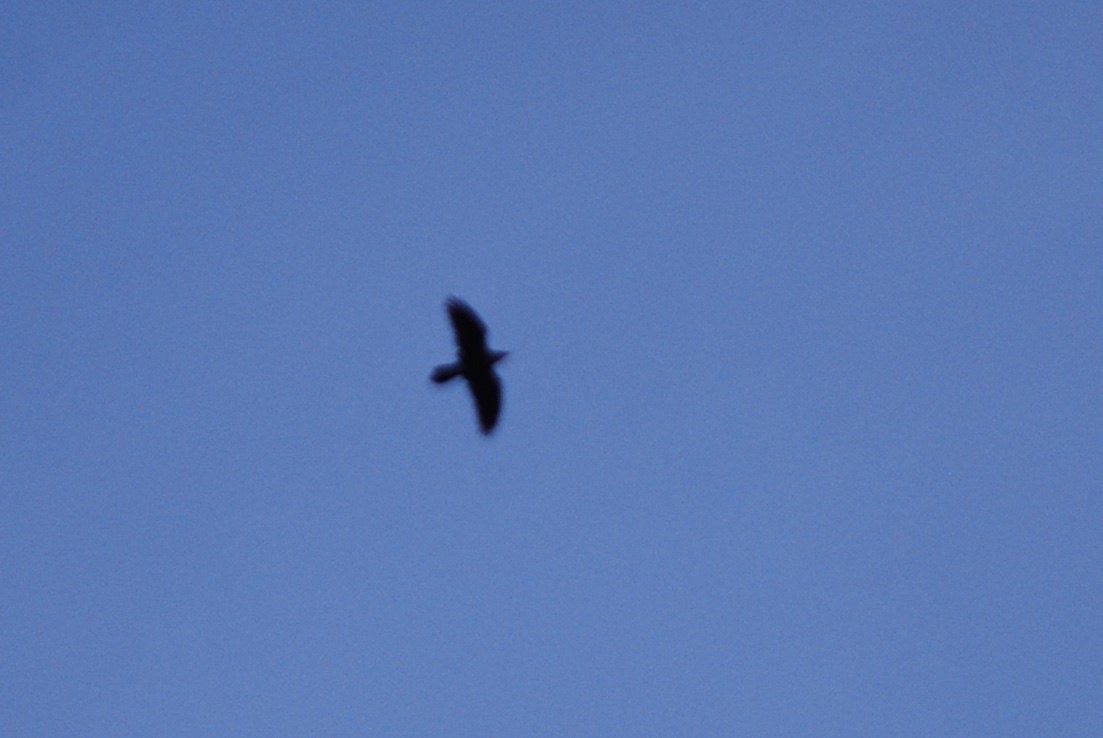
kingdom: Animalia
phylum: Chordata
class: Aves
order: Passeriformes
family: Corvidae
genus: Corvus
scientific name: Corvus corax
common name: Common raven
